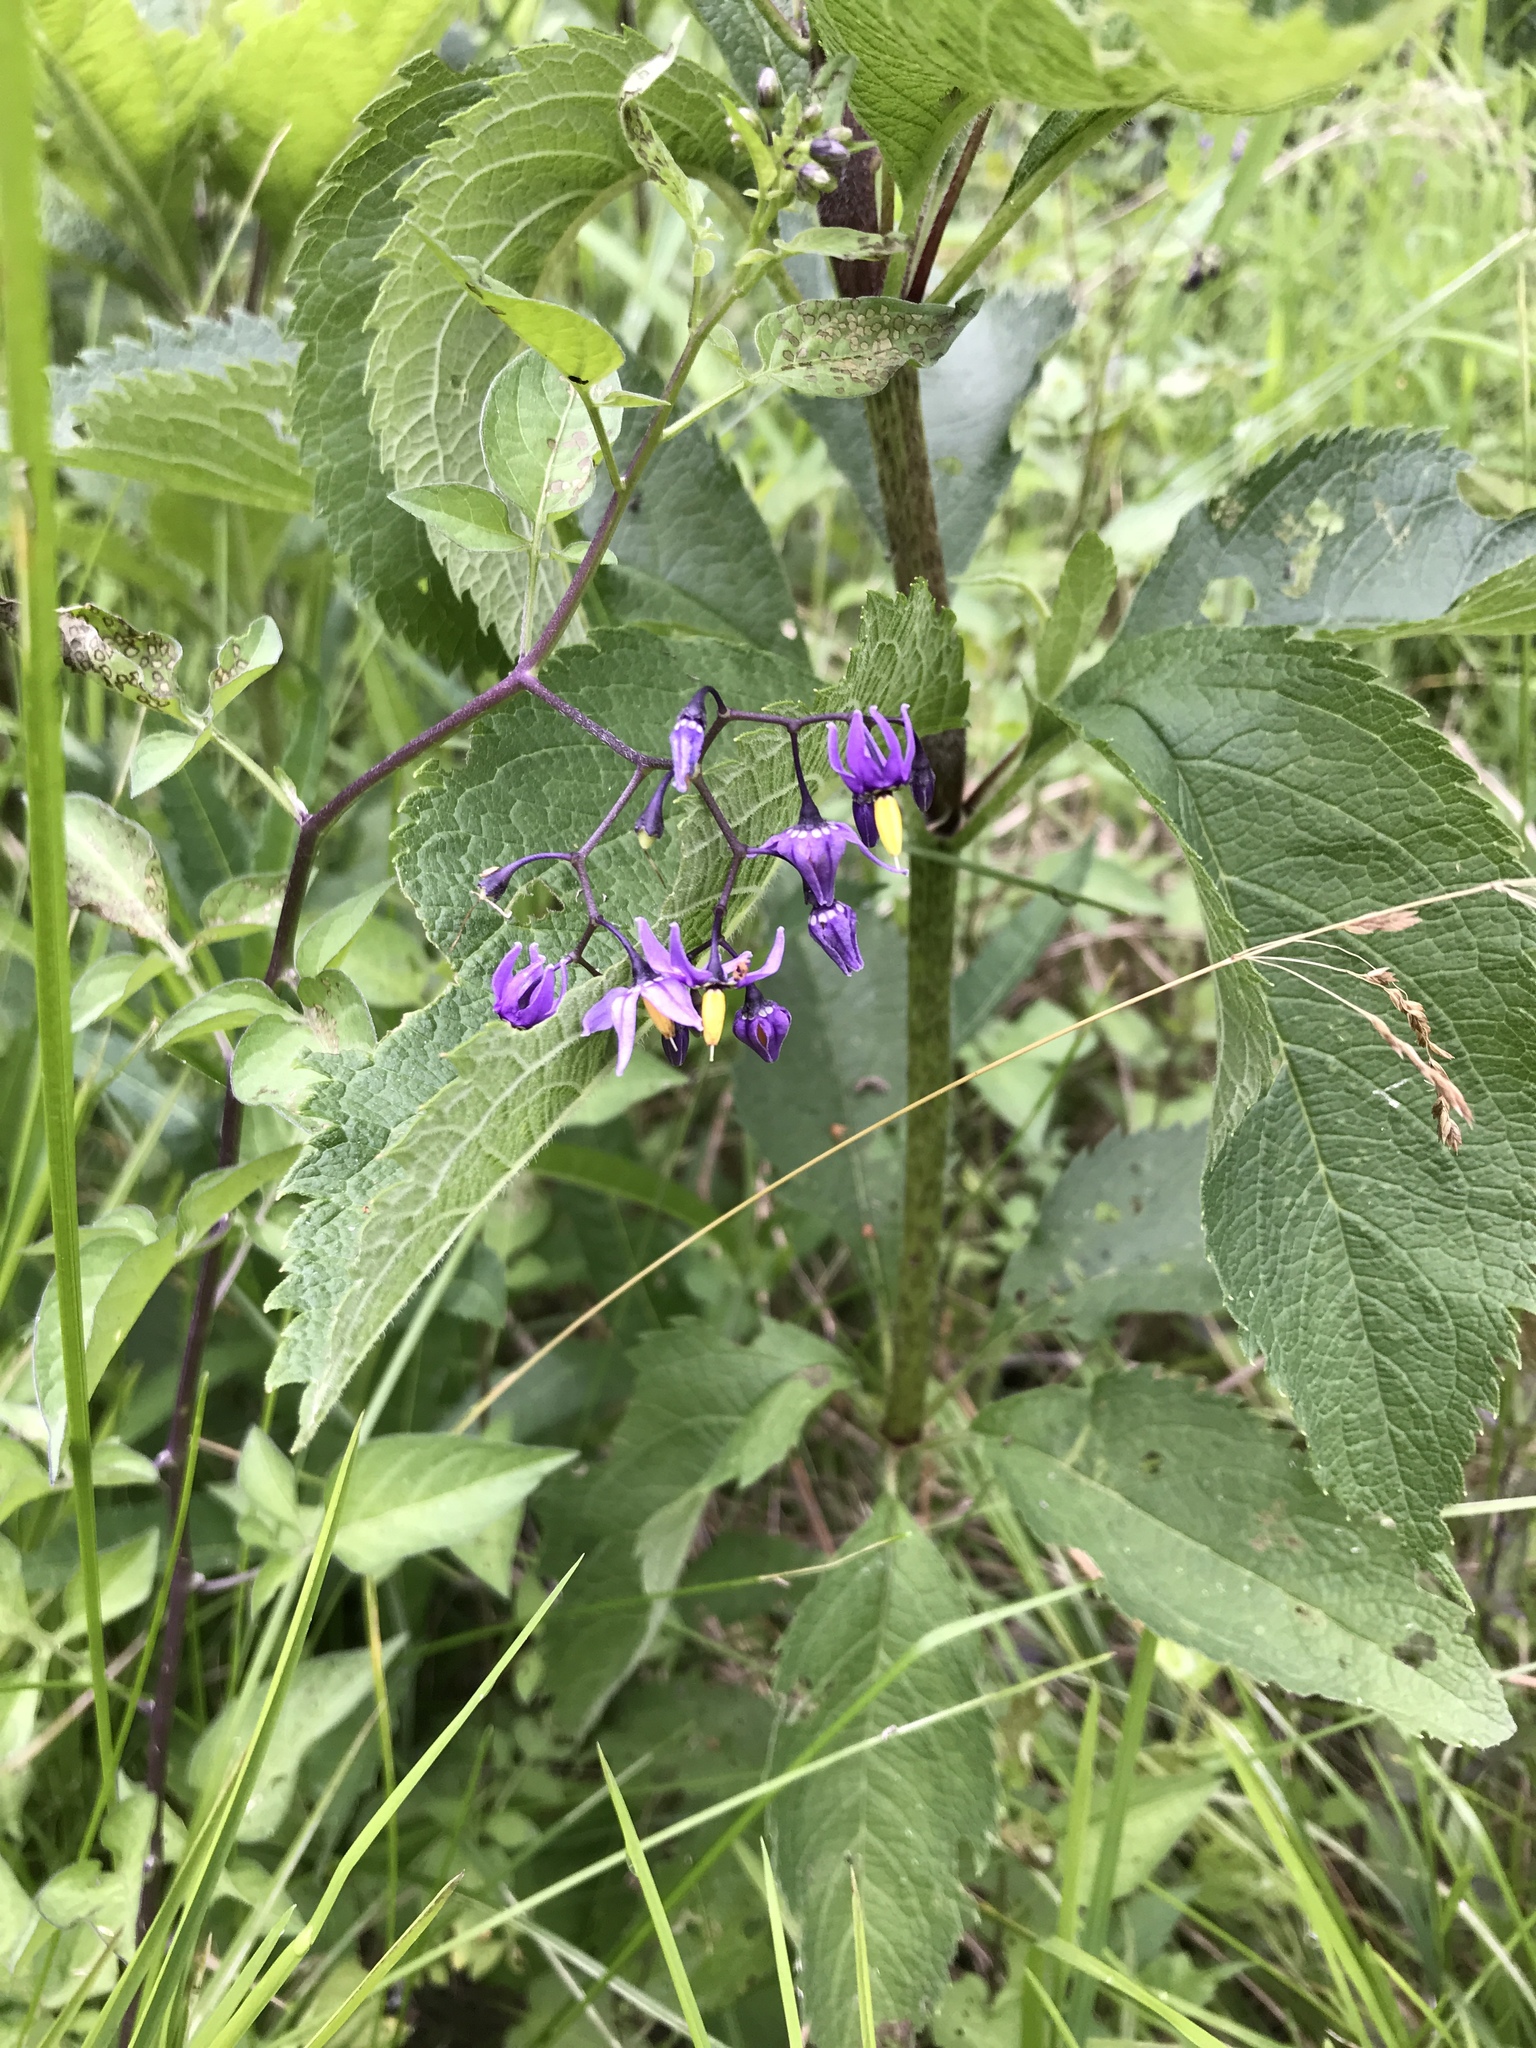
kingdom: Plantae
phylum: Tracheophyta
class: Magnoliopsida
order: Solanales
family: Solanaceae
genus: Solanum
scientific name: Solanum dulcamara
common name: Climbing nightshade
